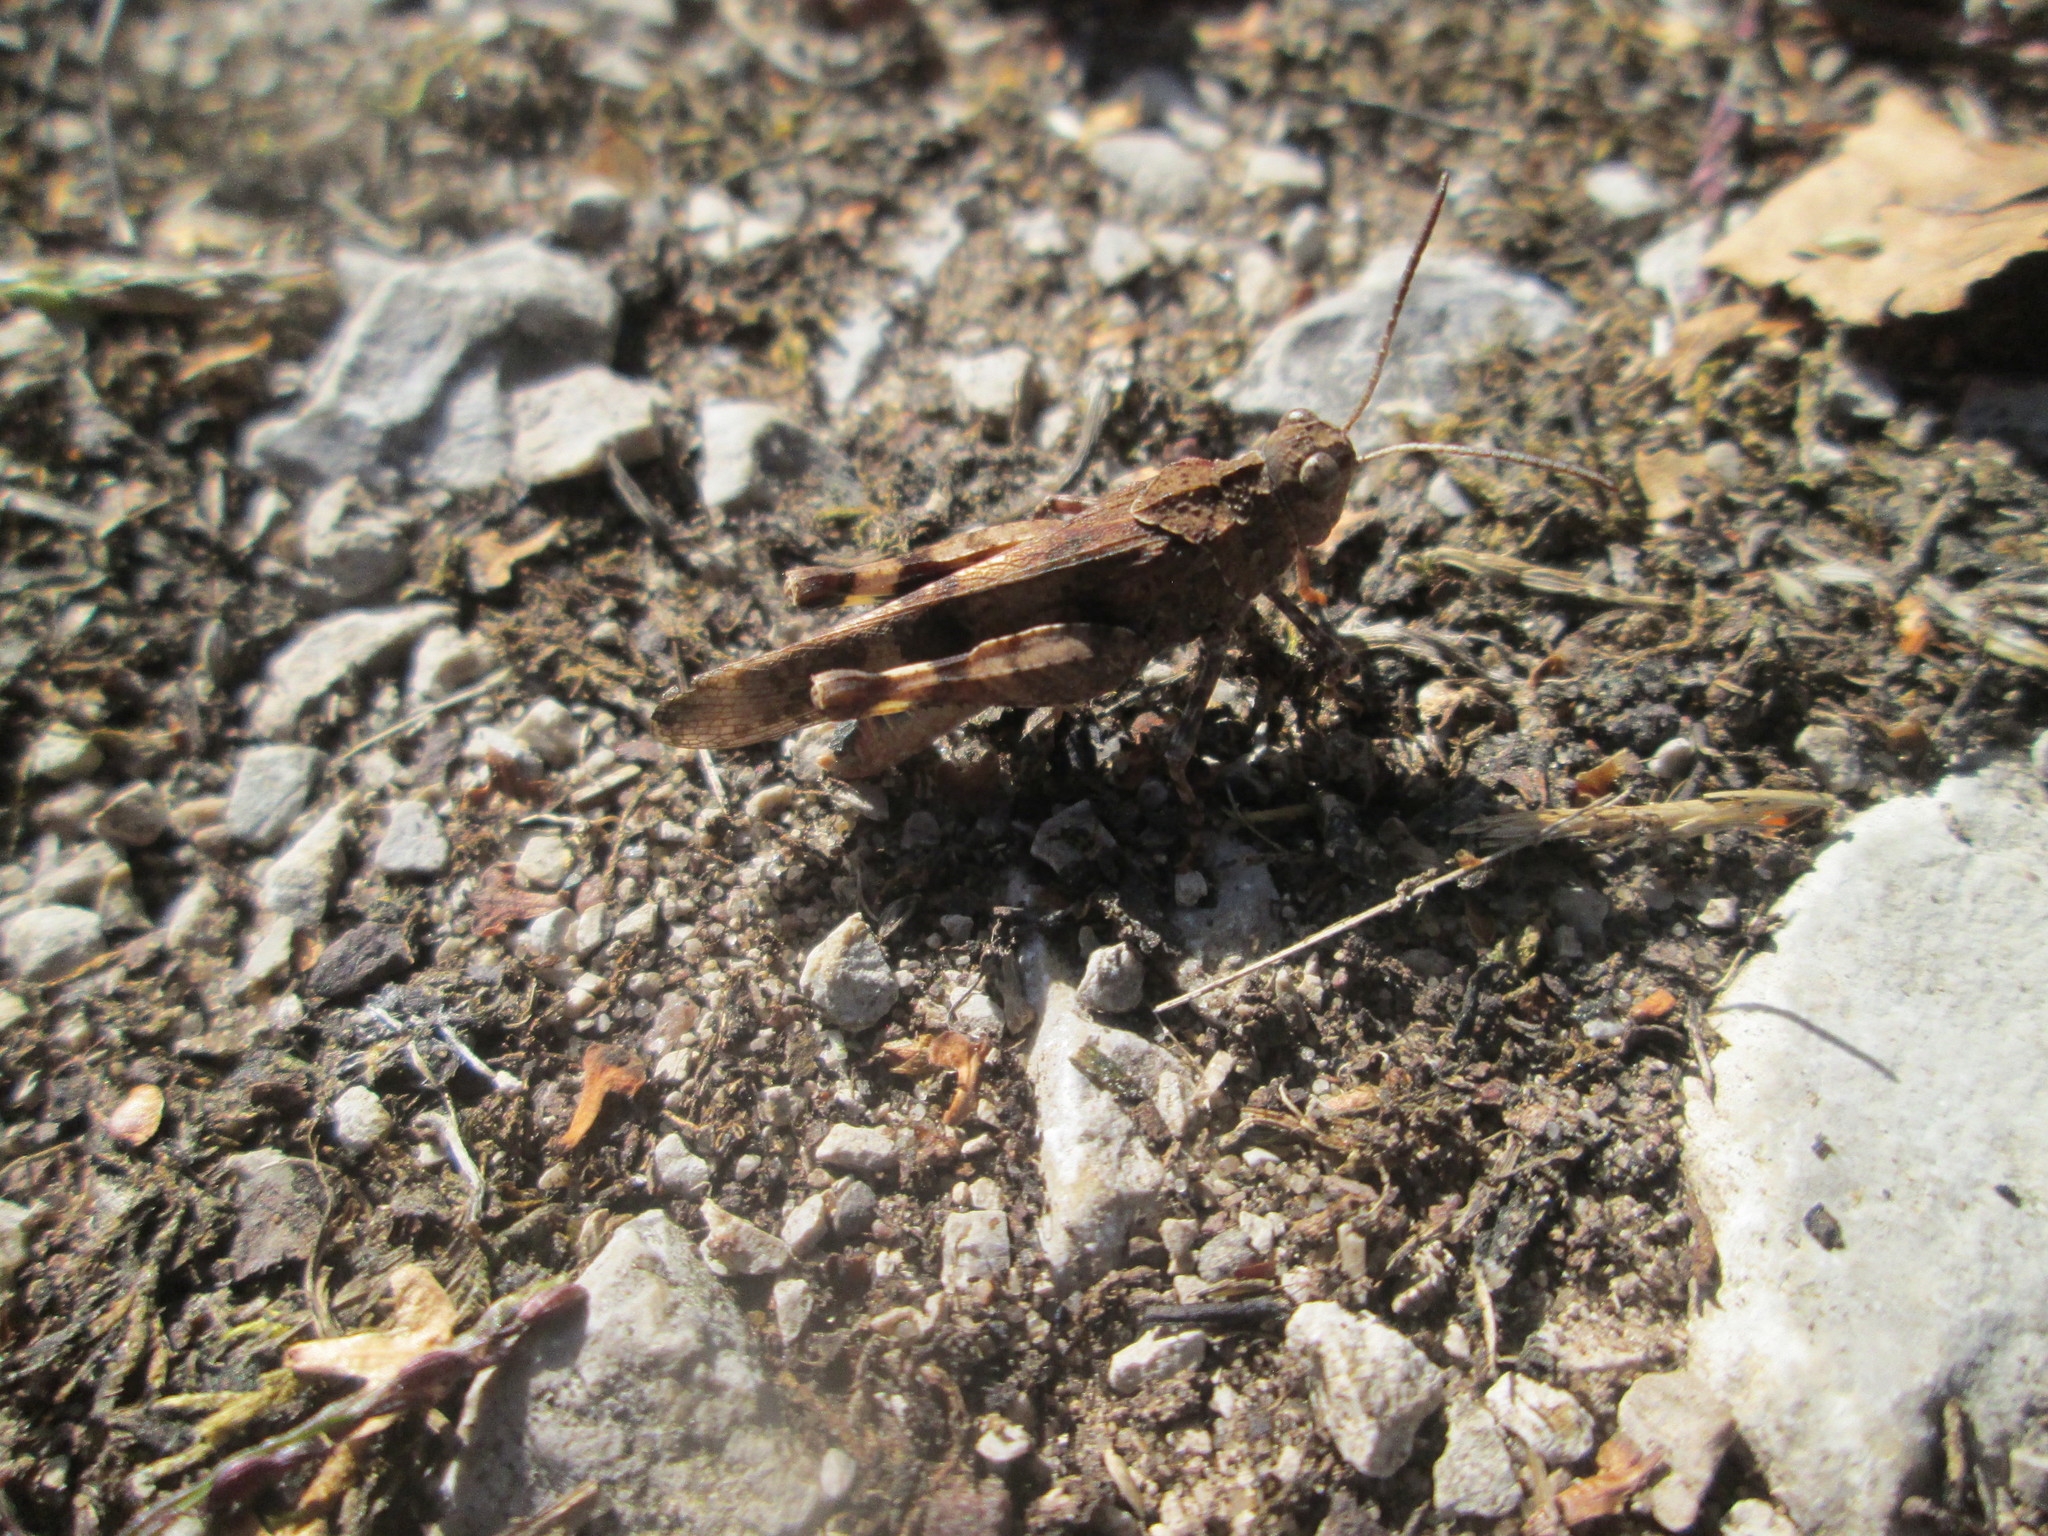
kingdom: Animalia
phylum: Arthropoda
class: Insecta
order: Orthoptera
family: Acrididae
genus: Oedipoda
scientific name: Oedipoda caerulescens
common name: Blue-winged grasshopper
